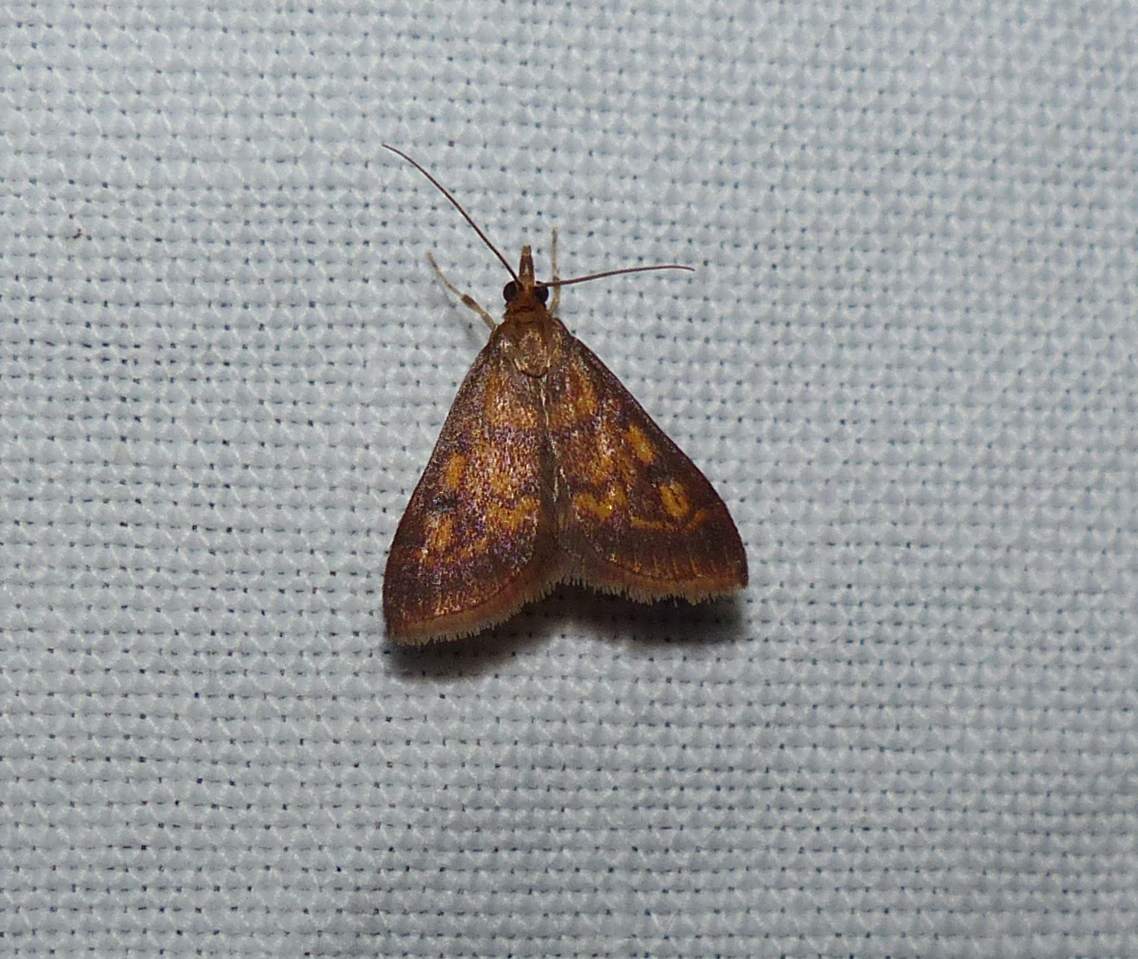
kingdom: Animalia
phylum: Arthropoda
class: Insecta
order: Lepidoptera
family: Crambidae
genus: Pyrausta
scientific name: Pyrausta acrionalis
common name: Mint-loving pyrausta moth
